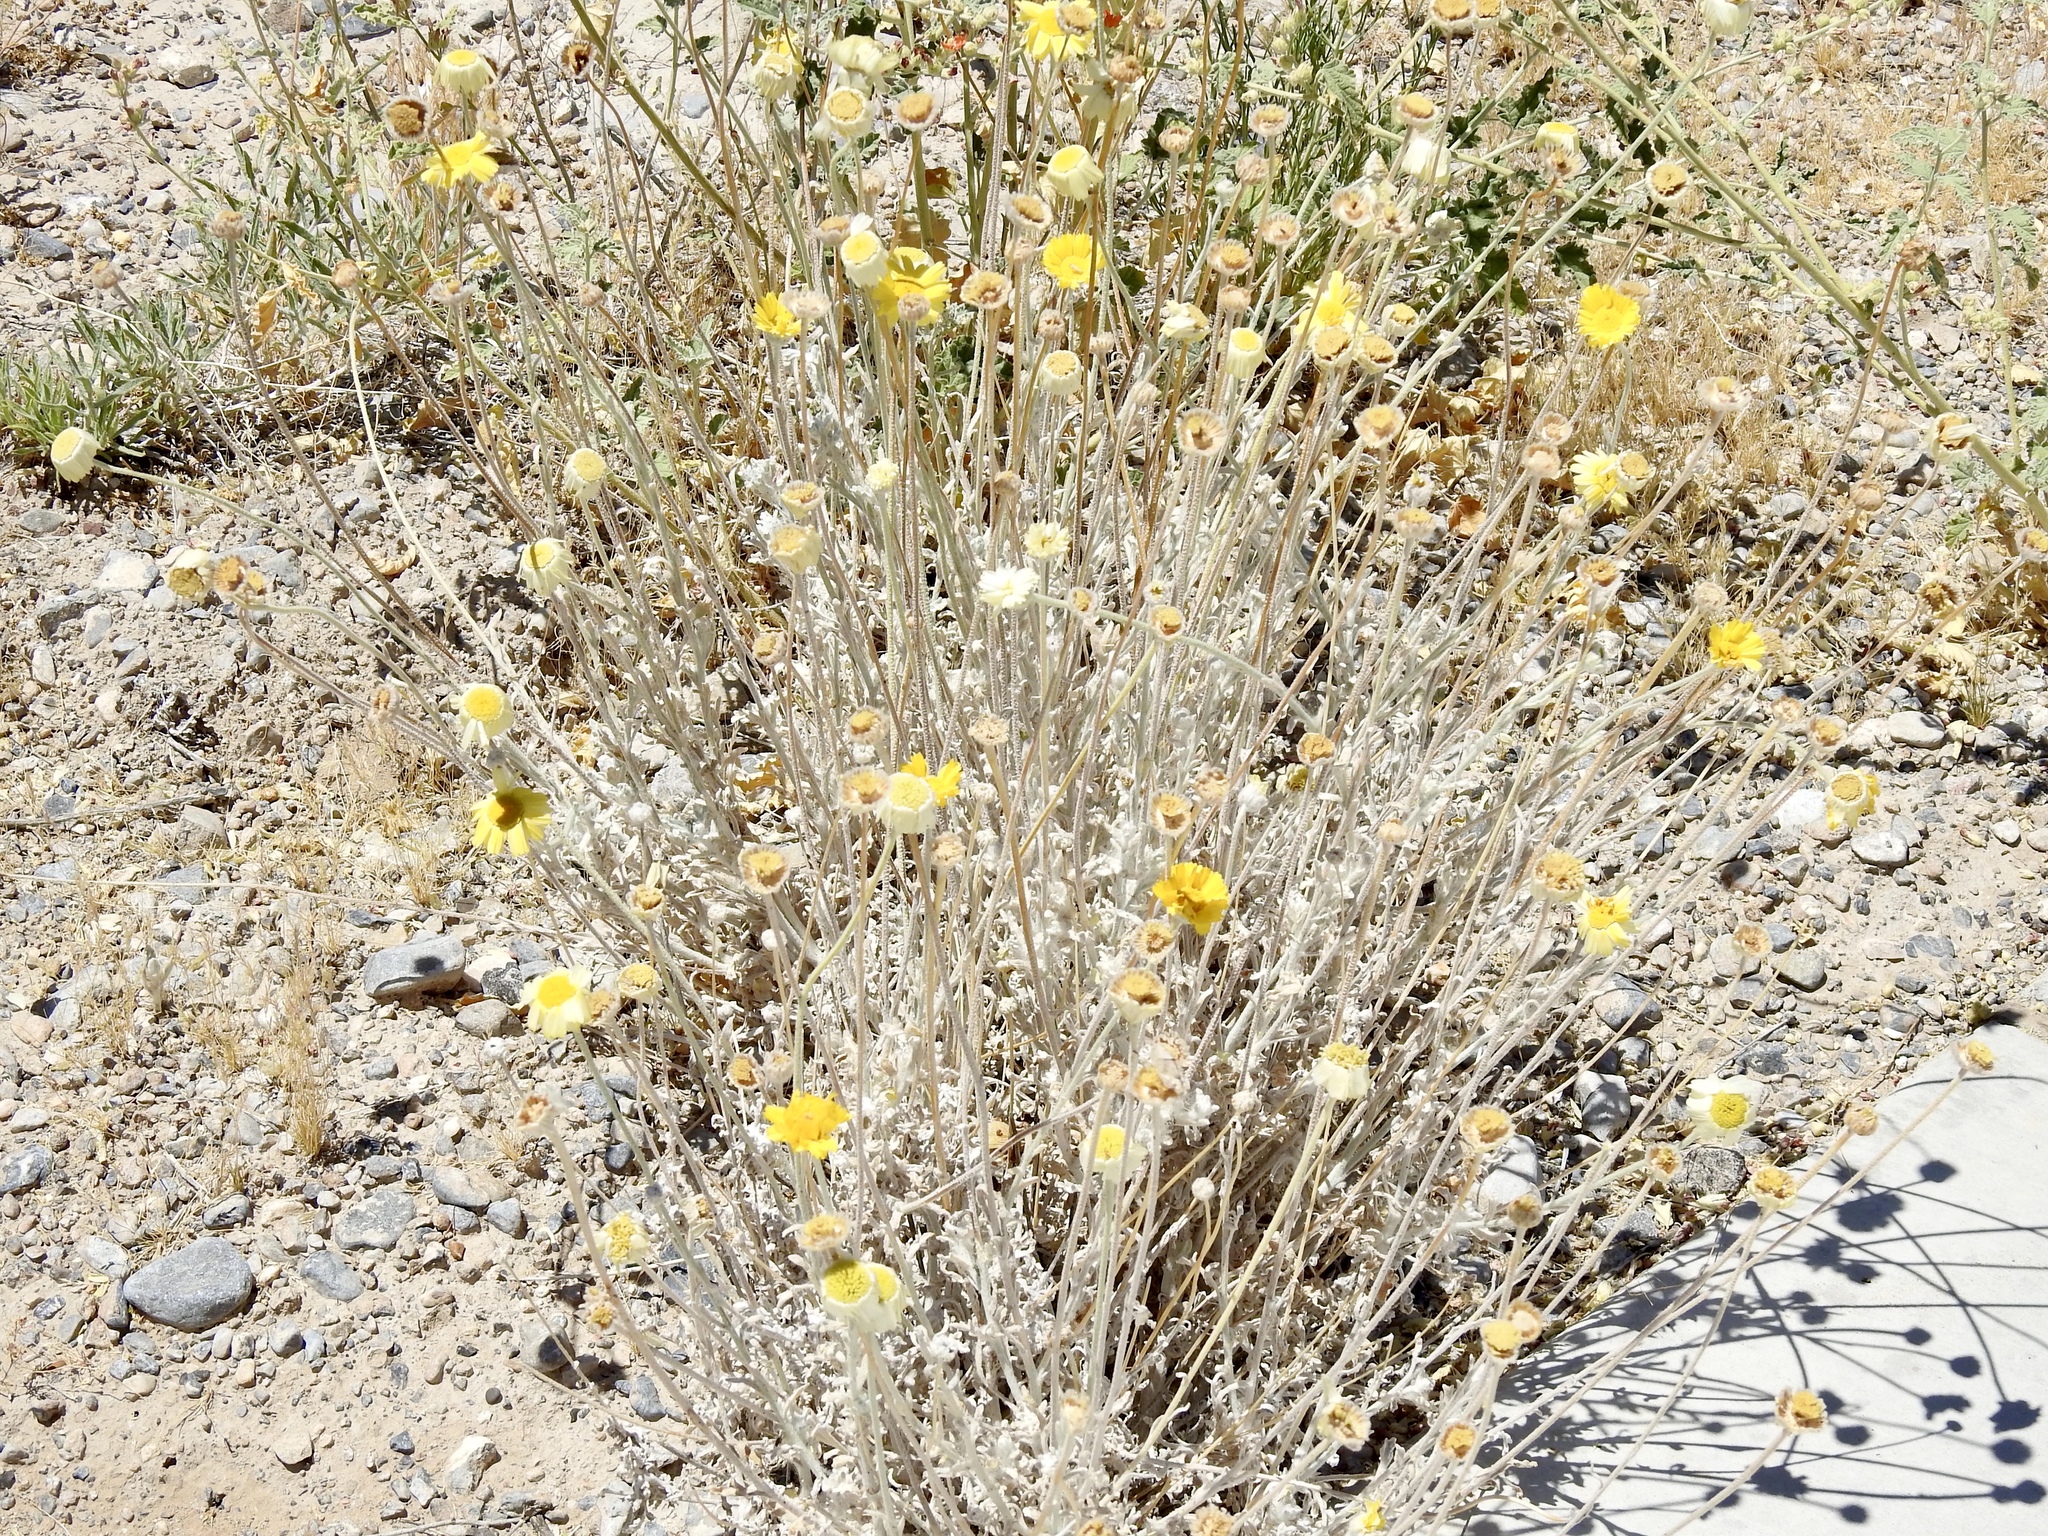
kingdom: Plantae
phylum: Tracheophyta
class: Magnoliopsida
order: Asterales
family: Asteraceae
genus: Baileya
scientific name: Baileya multiradiata
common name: Desert-marigold
